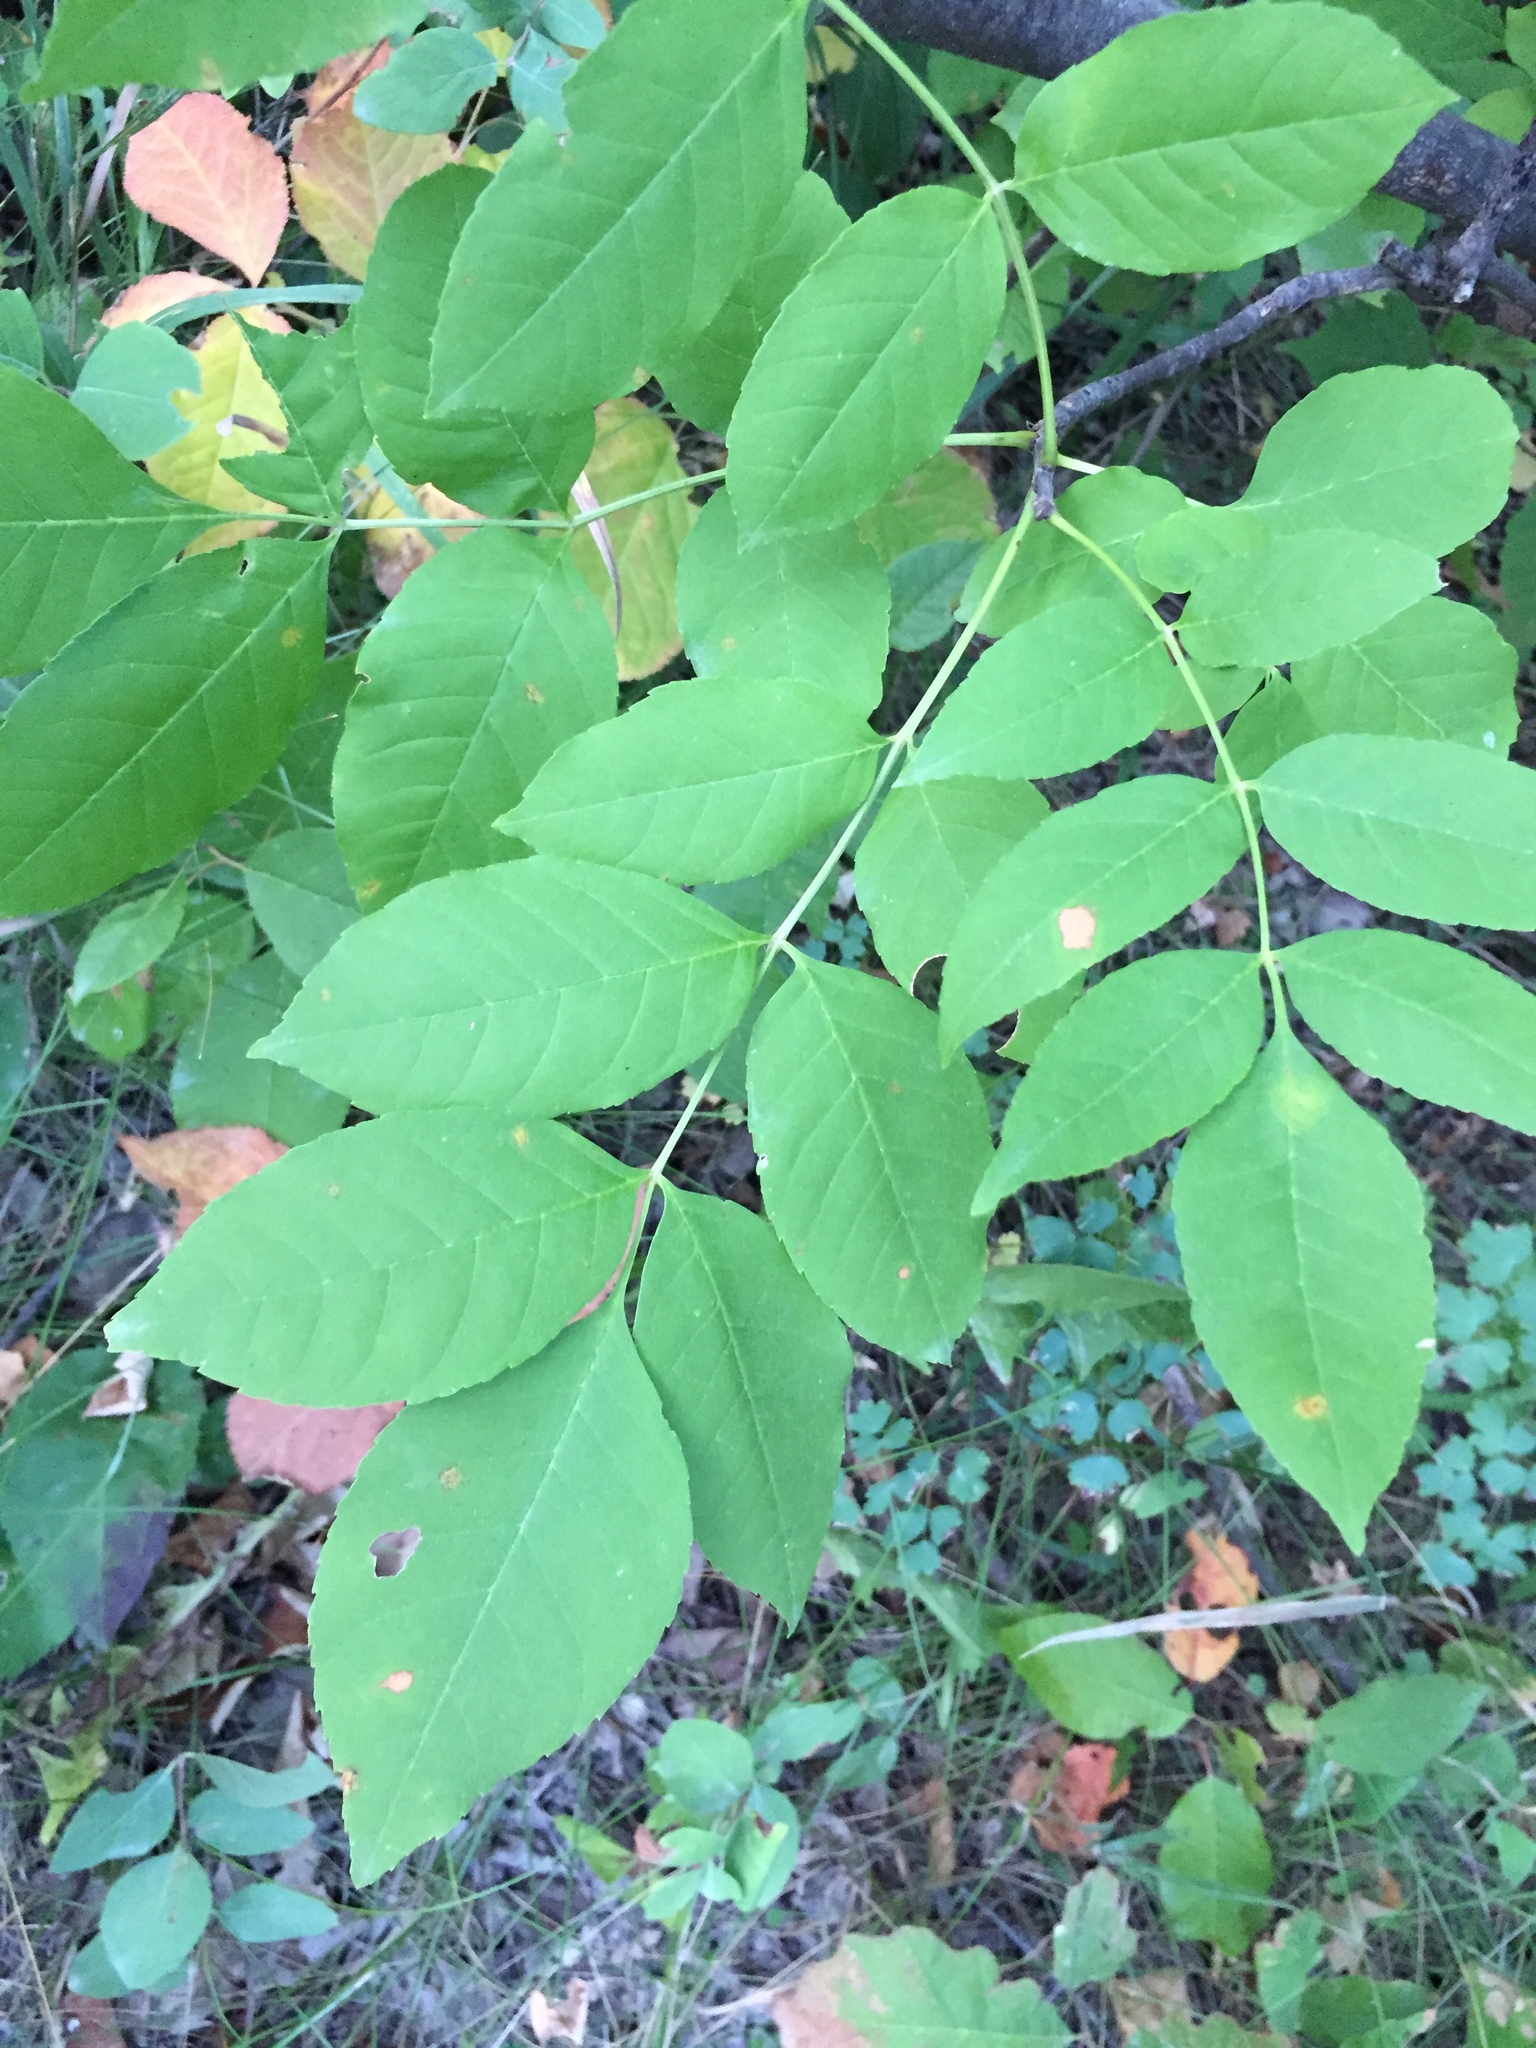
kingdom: Plantae
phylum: Tracheophyta
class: Magnoliopsida
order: Lamiales
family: Oleaceae
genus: Fraxinus
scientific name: Fraxinus pennsylvanica
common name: Green ash
